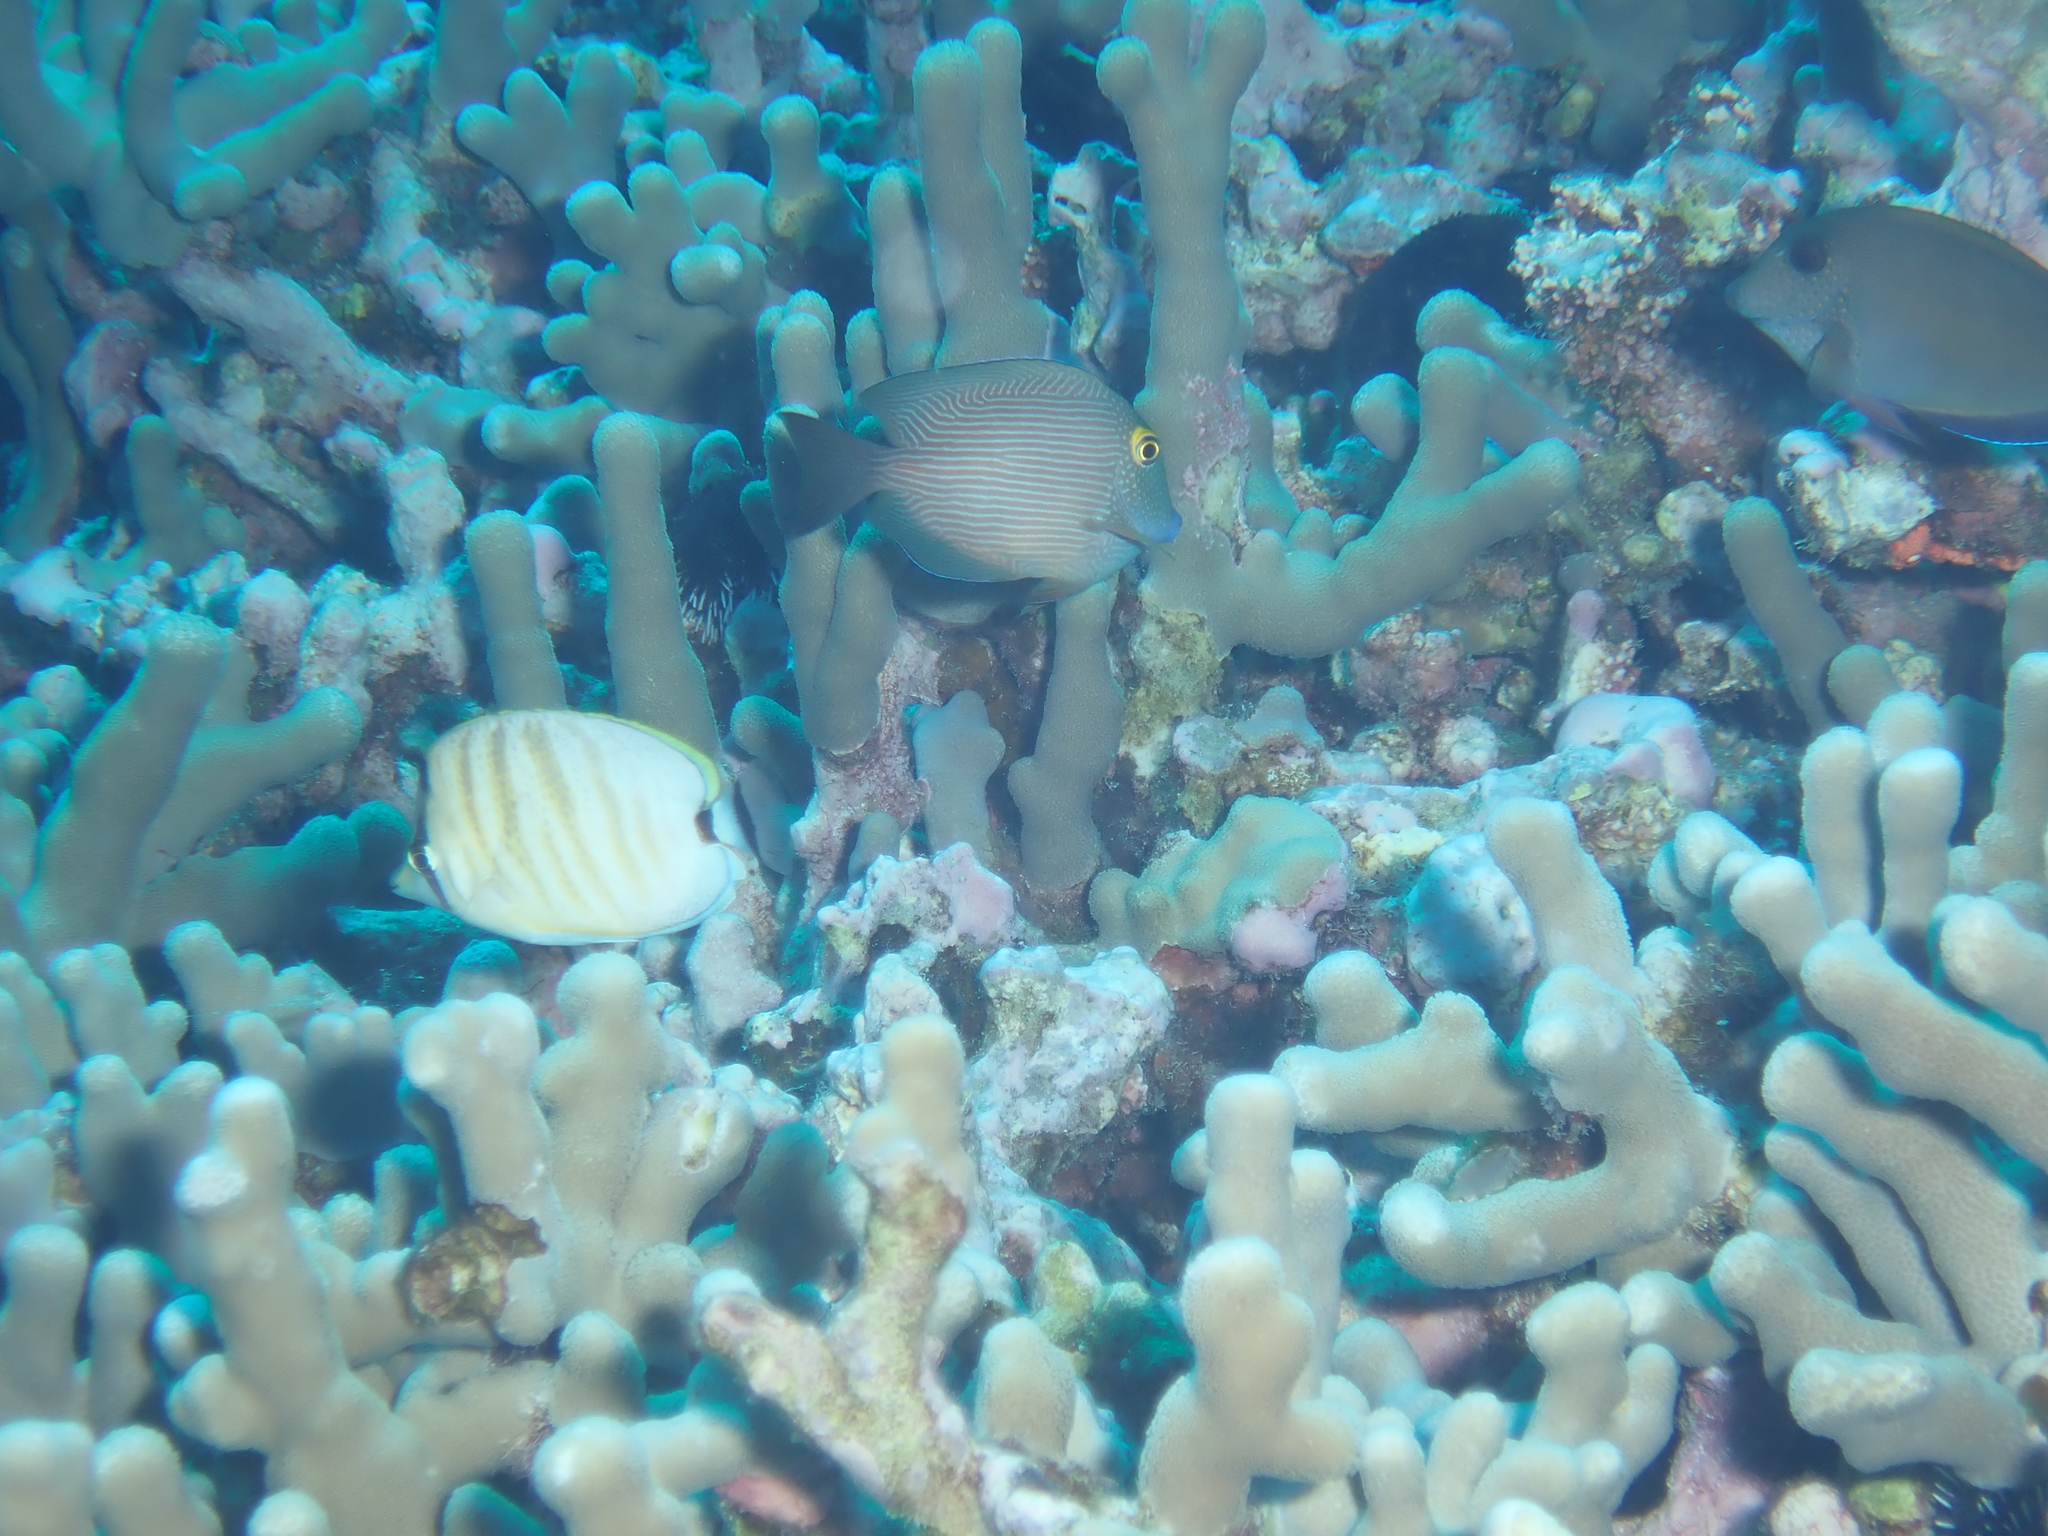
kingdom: Animalia
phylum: Chordata
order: Perciformes
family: Chaetodontidae
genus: Chaetodon
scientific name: Chaetodon multicinctus
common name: Multiband butterflyfish
